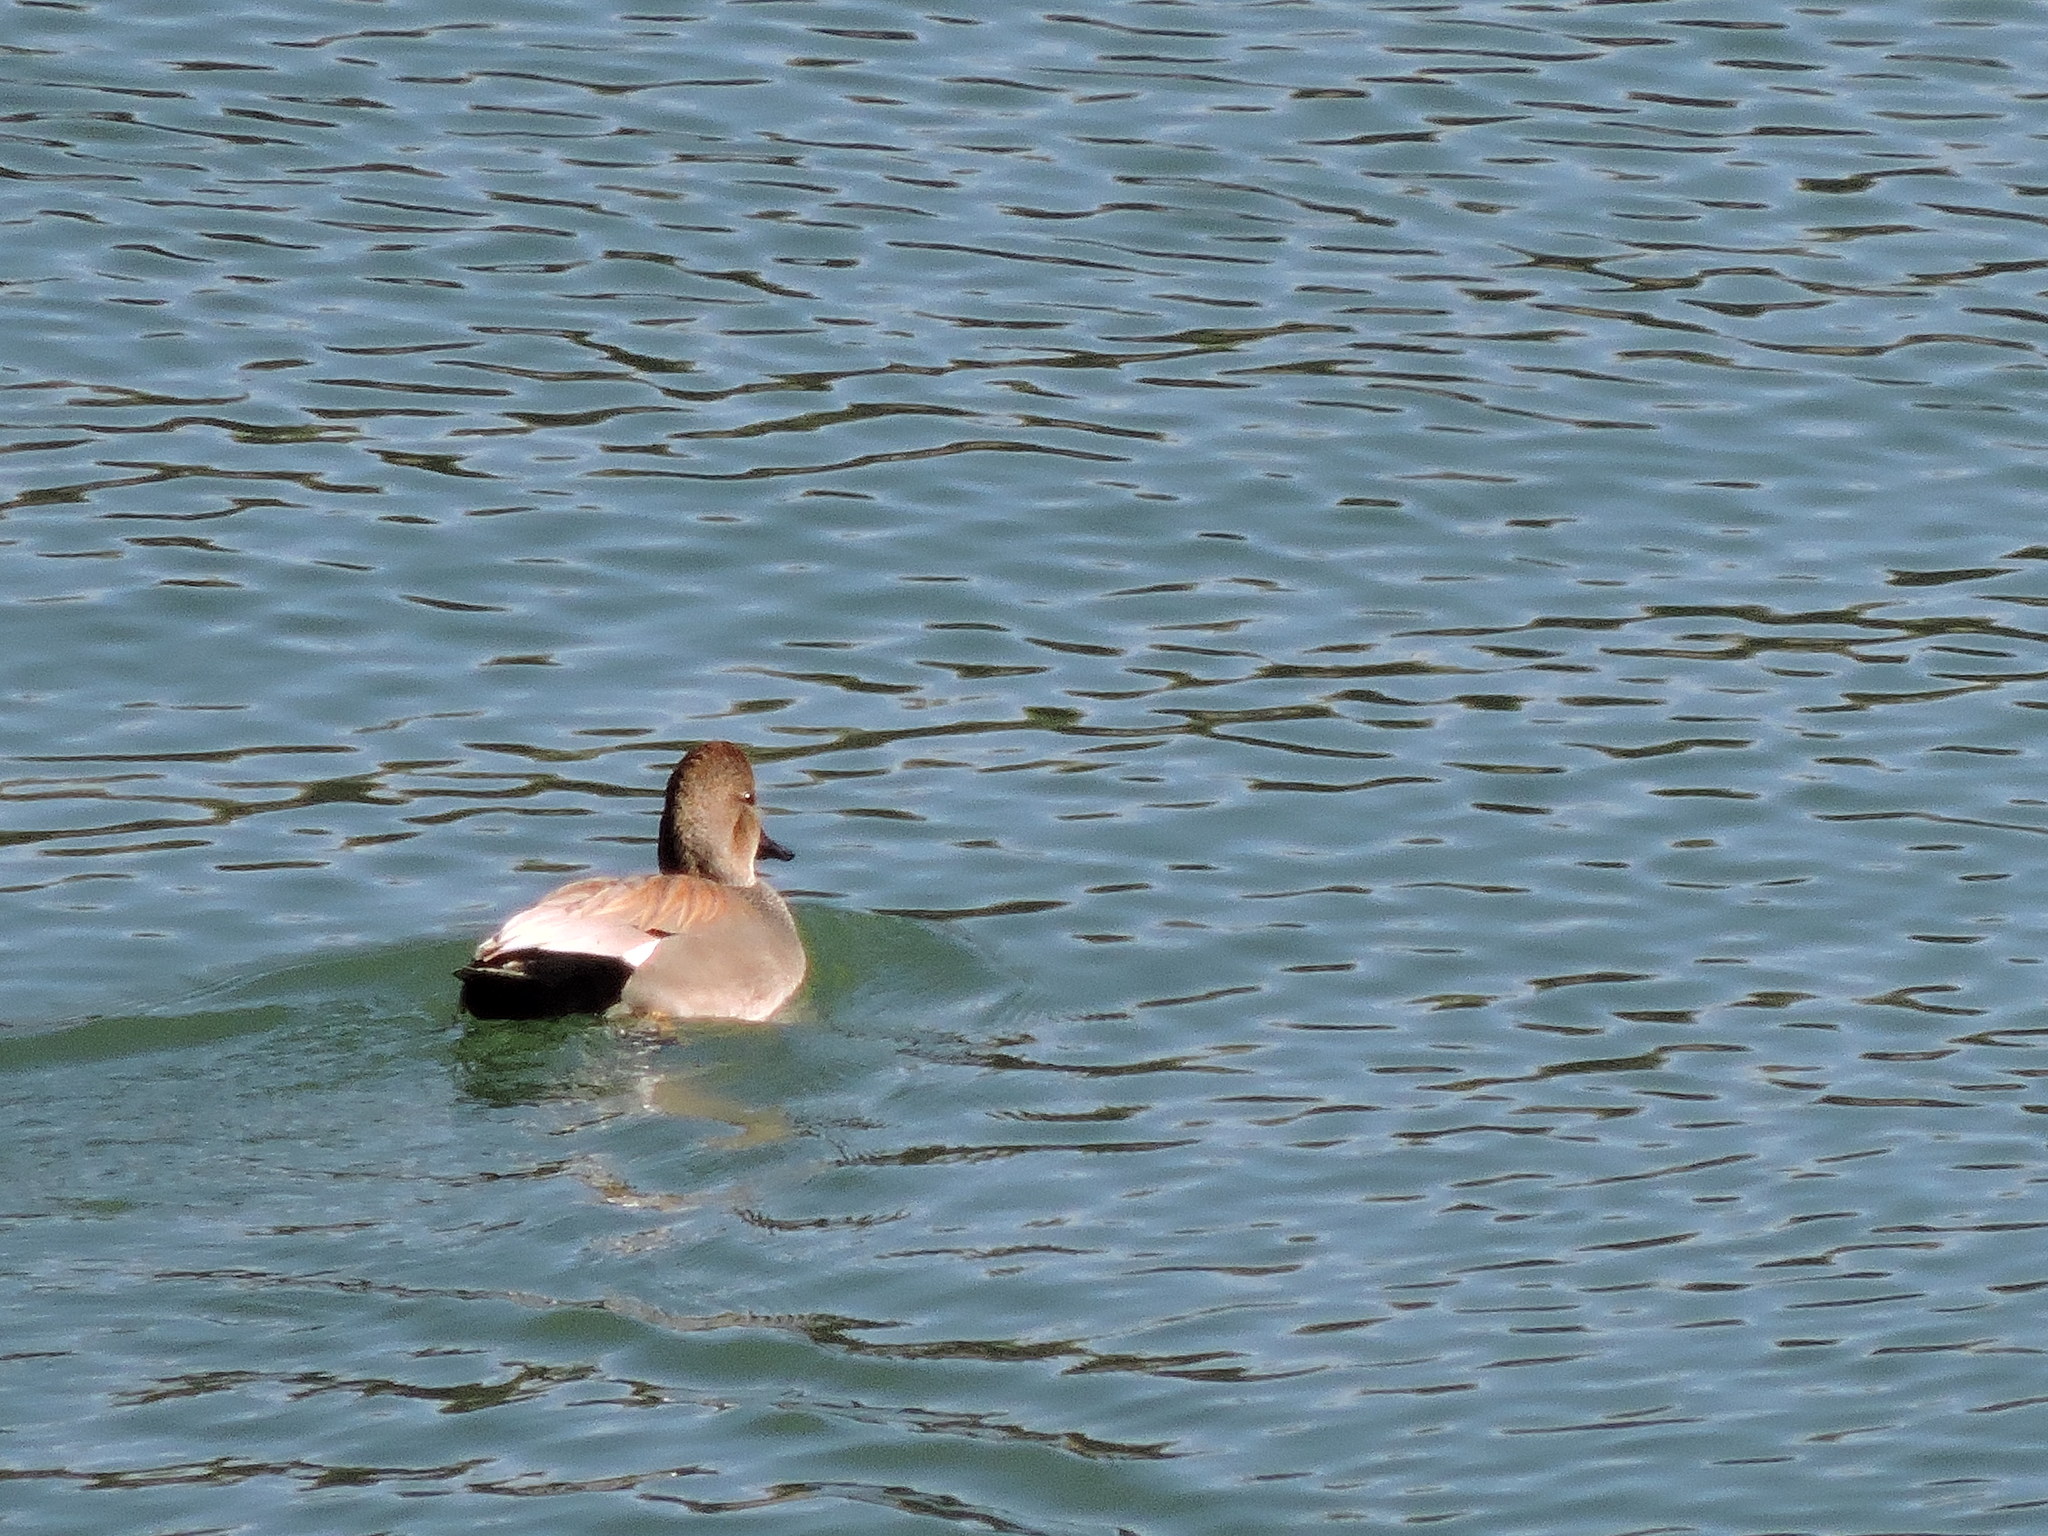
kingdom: Animalia
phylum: Chordata
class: Aves
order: Anseriformes
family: Anatidae
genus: Mareca
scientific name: Mareca strepera
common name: Gadwall
